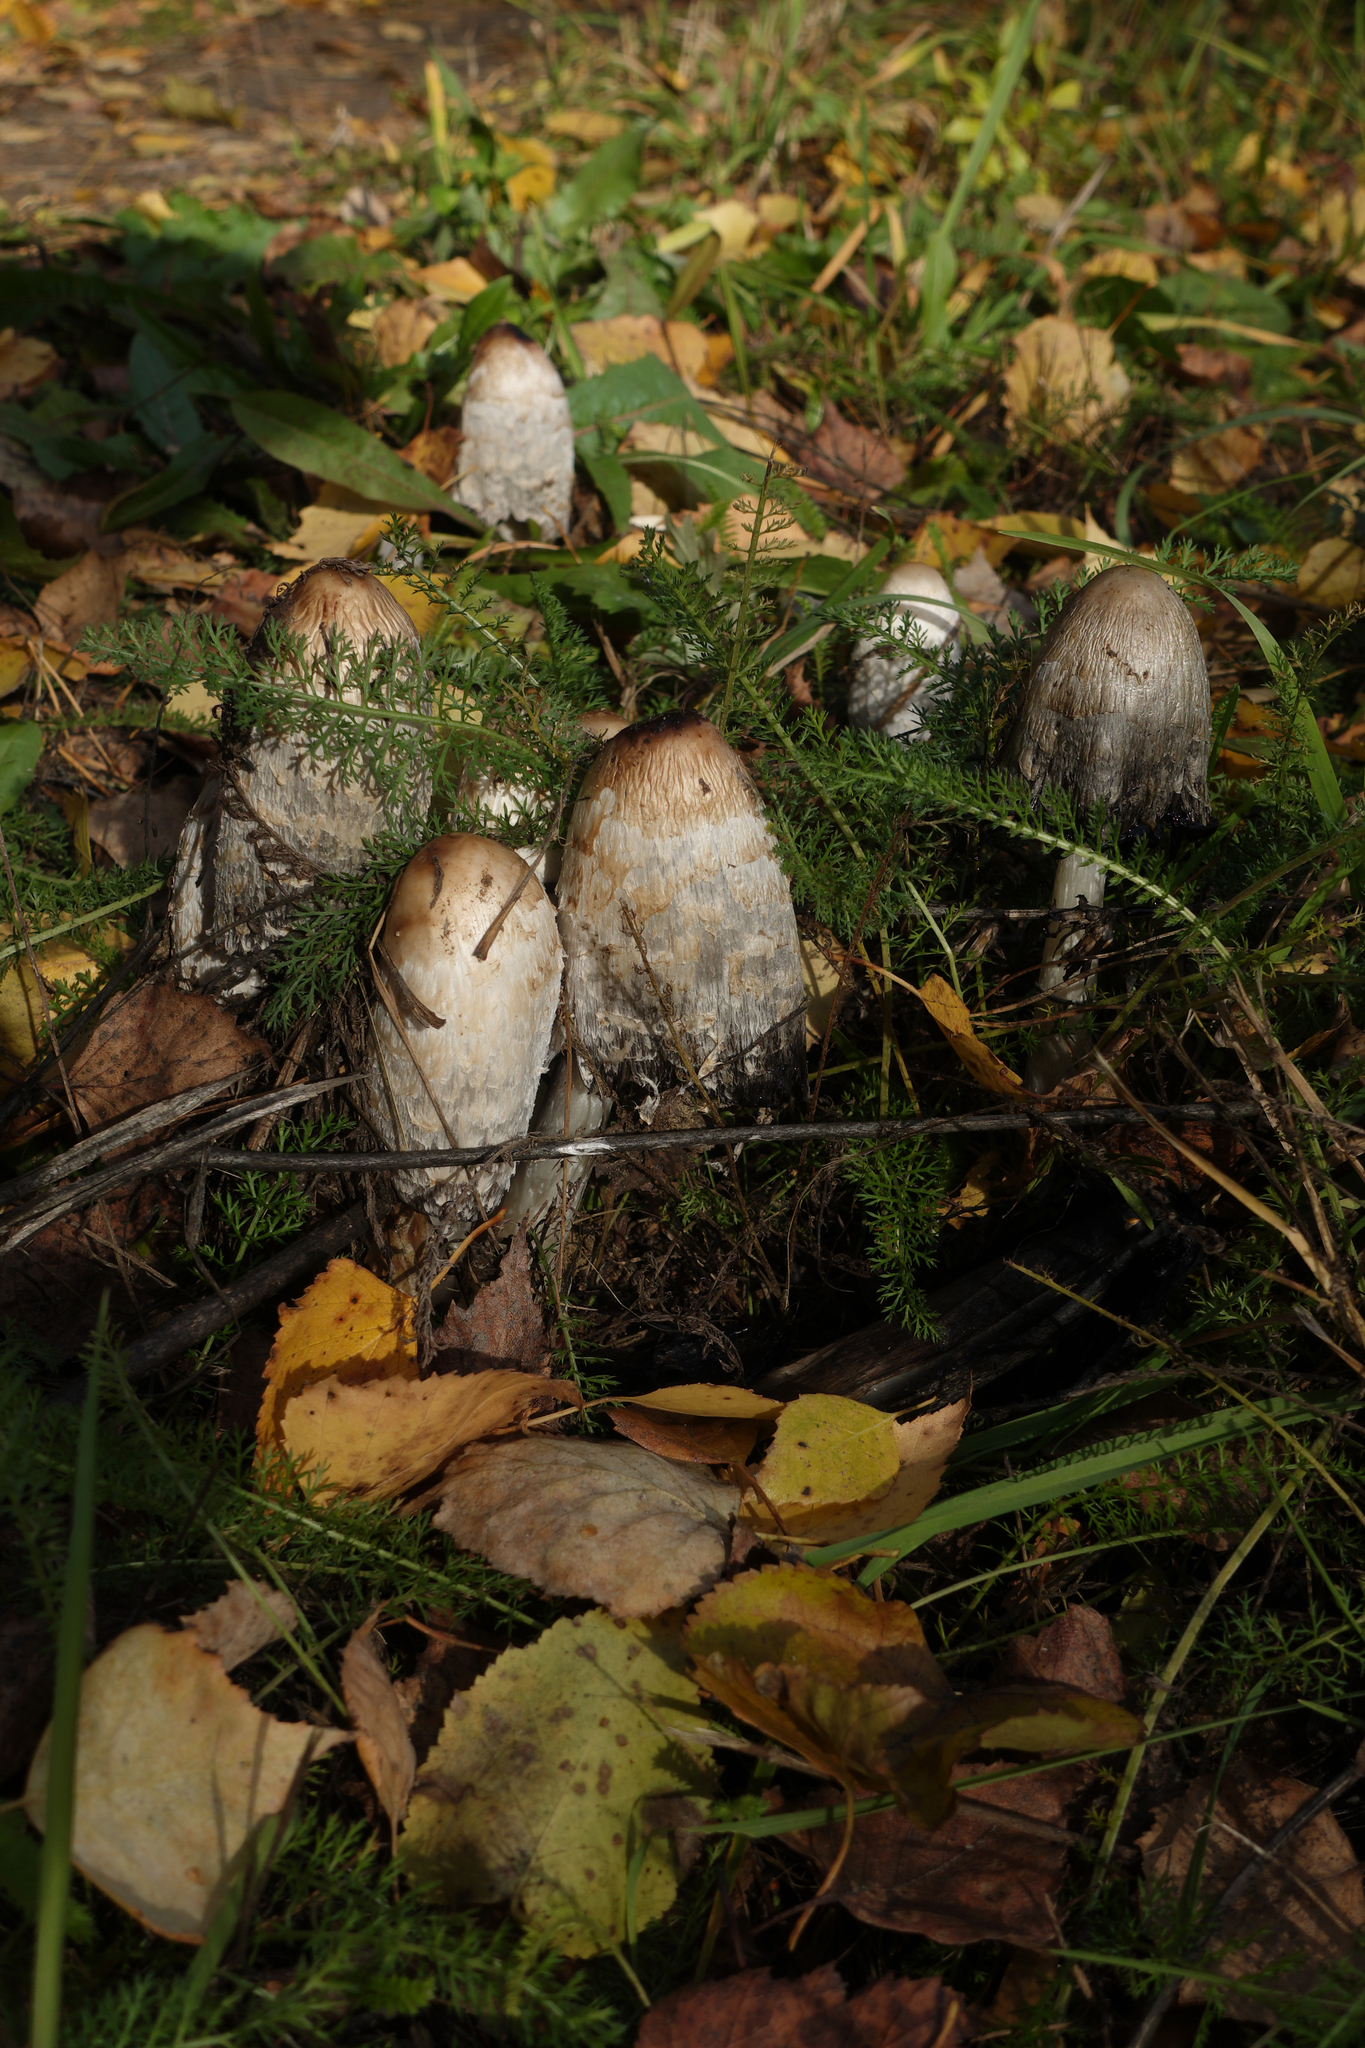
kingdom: Fungi
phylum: Basidiomycota
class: Agaricomycetes
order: Agaricales
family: Agaricaceae
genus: Coprinus
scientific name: Coprinus comatus
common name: Lawyer's wig
